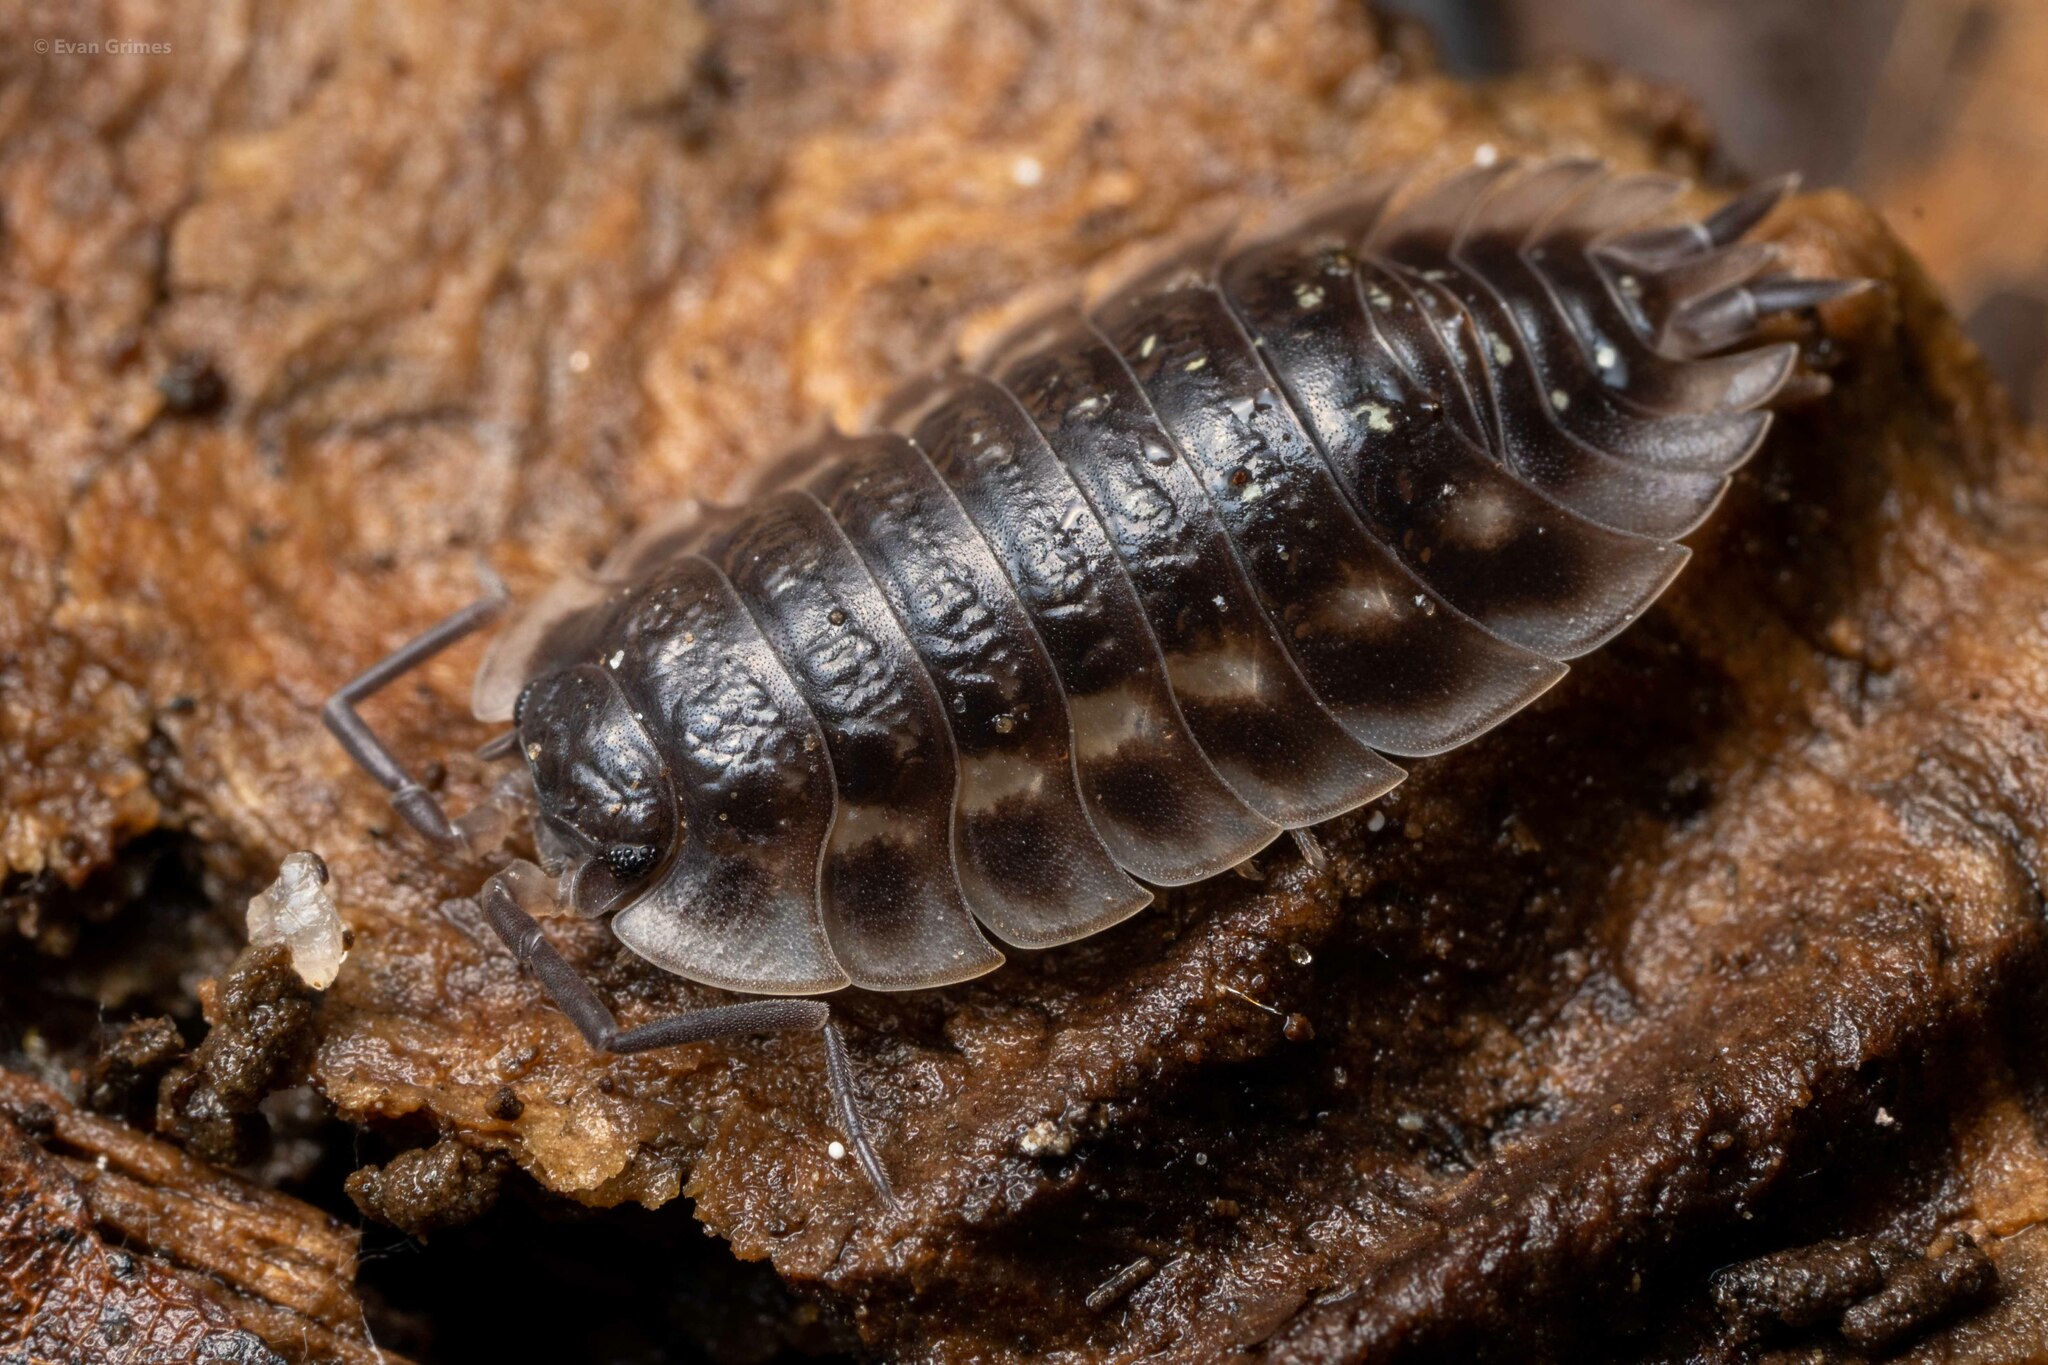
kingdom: Animalia
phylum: Arthropoda
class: Malacostraca
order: Isopoda
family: Oniscidae
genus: Oniscus
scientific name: Oniscus asellus
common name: Common shiny woodlouse
